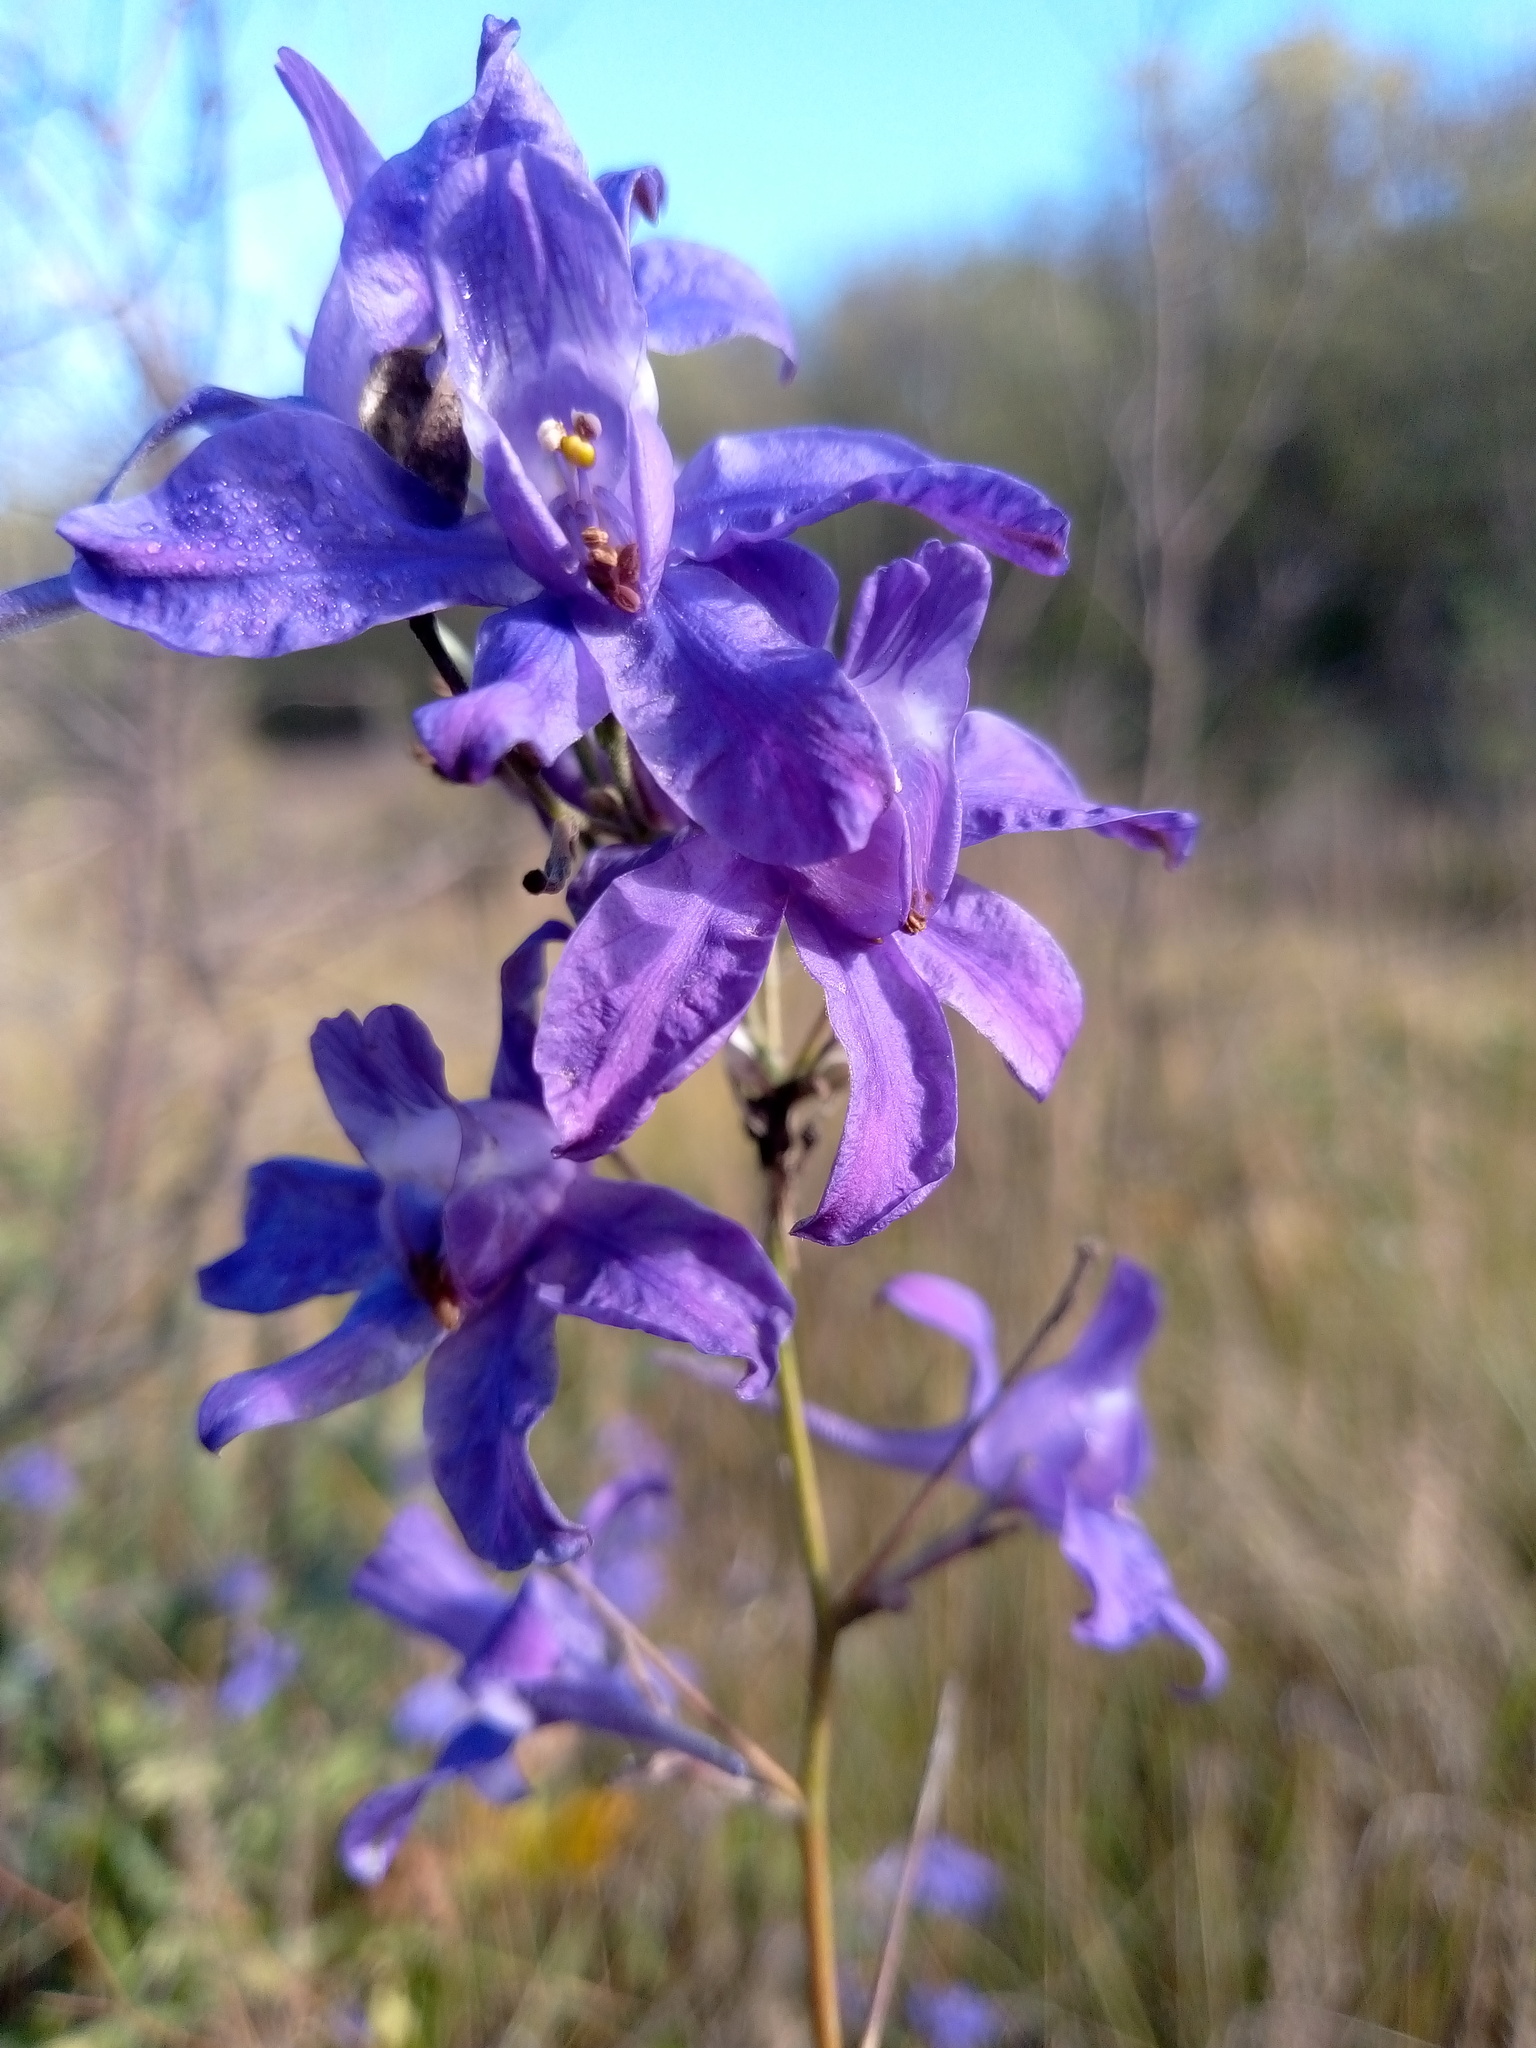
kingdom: Plantae
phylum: Tracheophyta
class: Magnoliopsida
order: Ranunculales
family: Ranunculaceae
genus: Delphinium
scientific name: Delphinium consolida
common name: Branching larkspur
